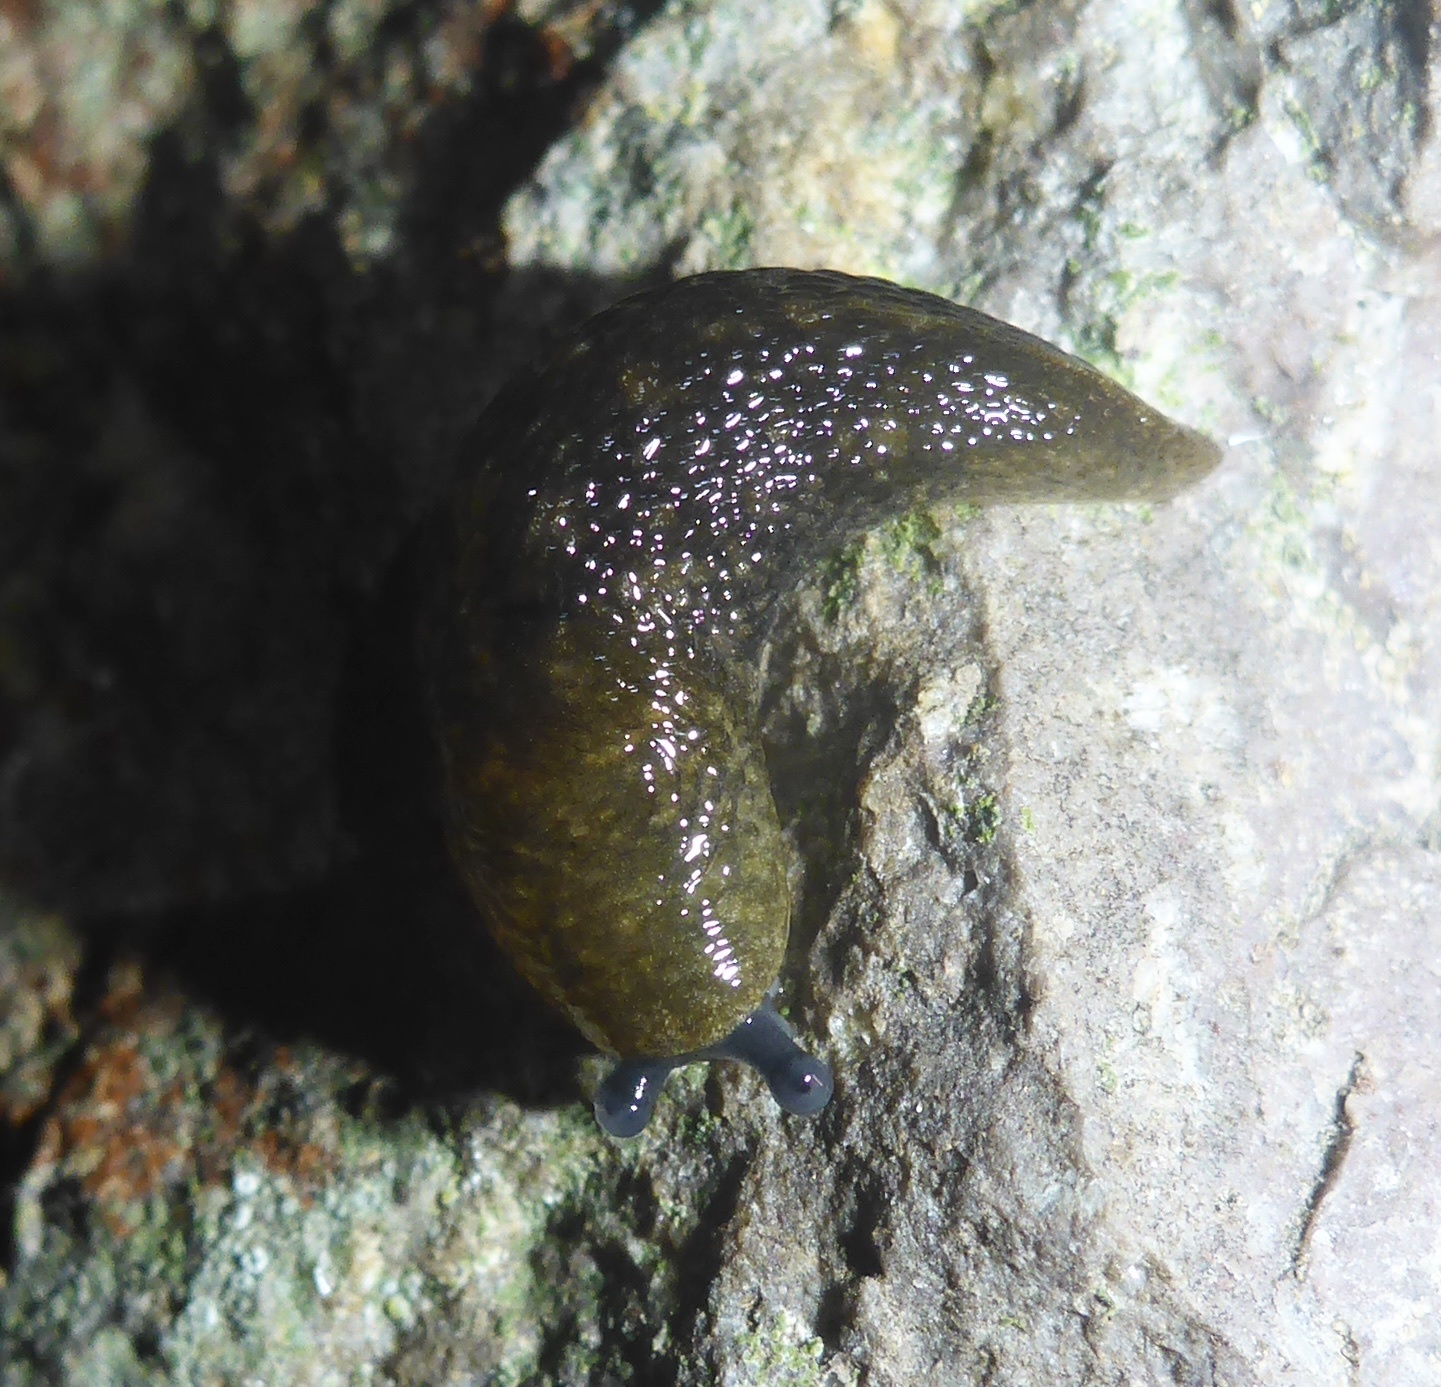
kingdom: Animalia
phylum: Mollusca
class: Gastropoda
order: Stylommatophora
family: Limacidae
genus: Limacus
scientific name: Limacus flavus
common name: Yellow gardenslug
